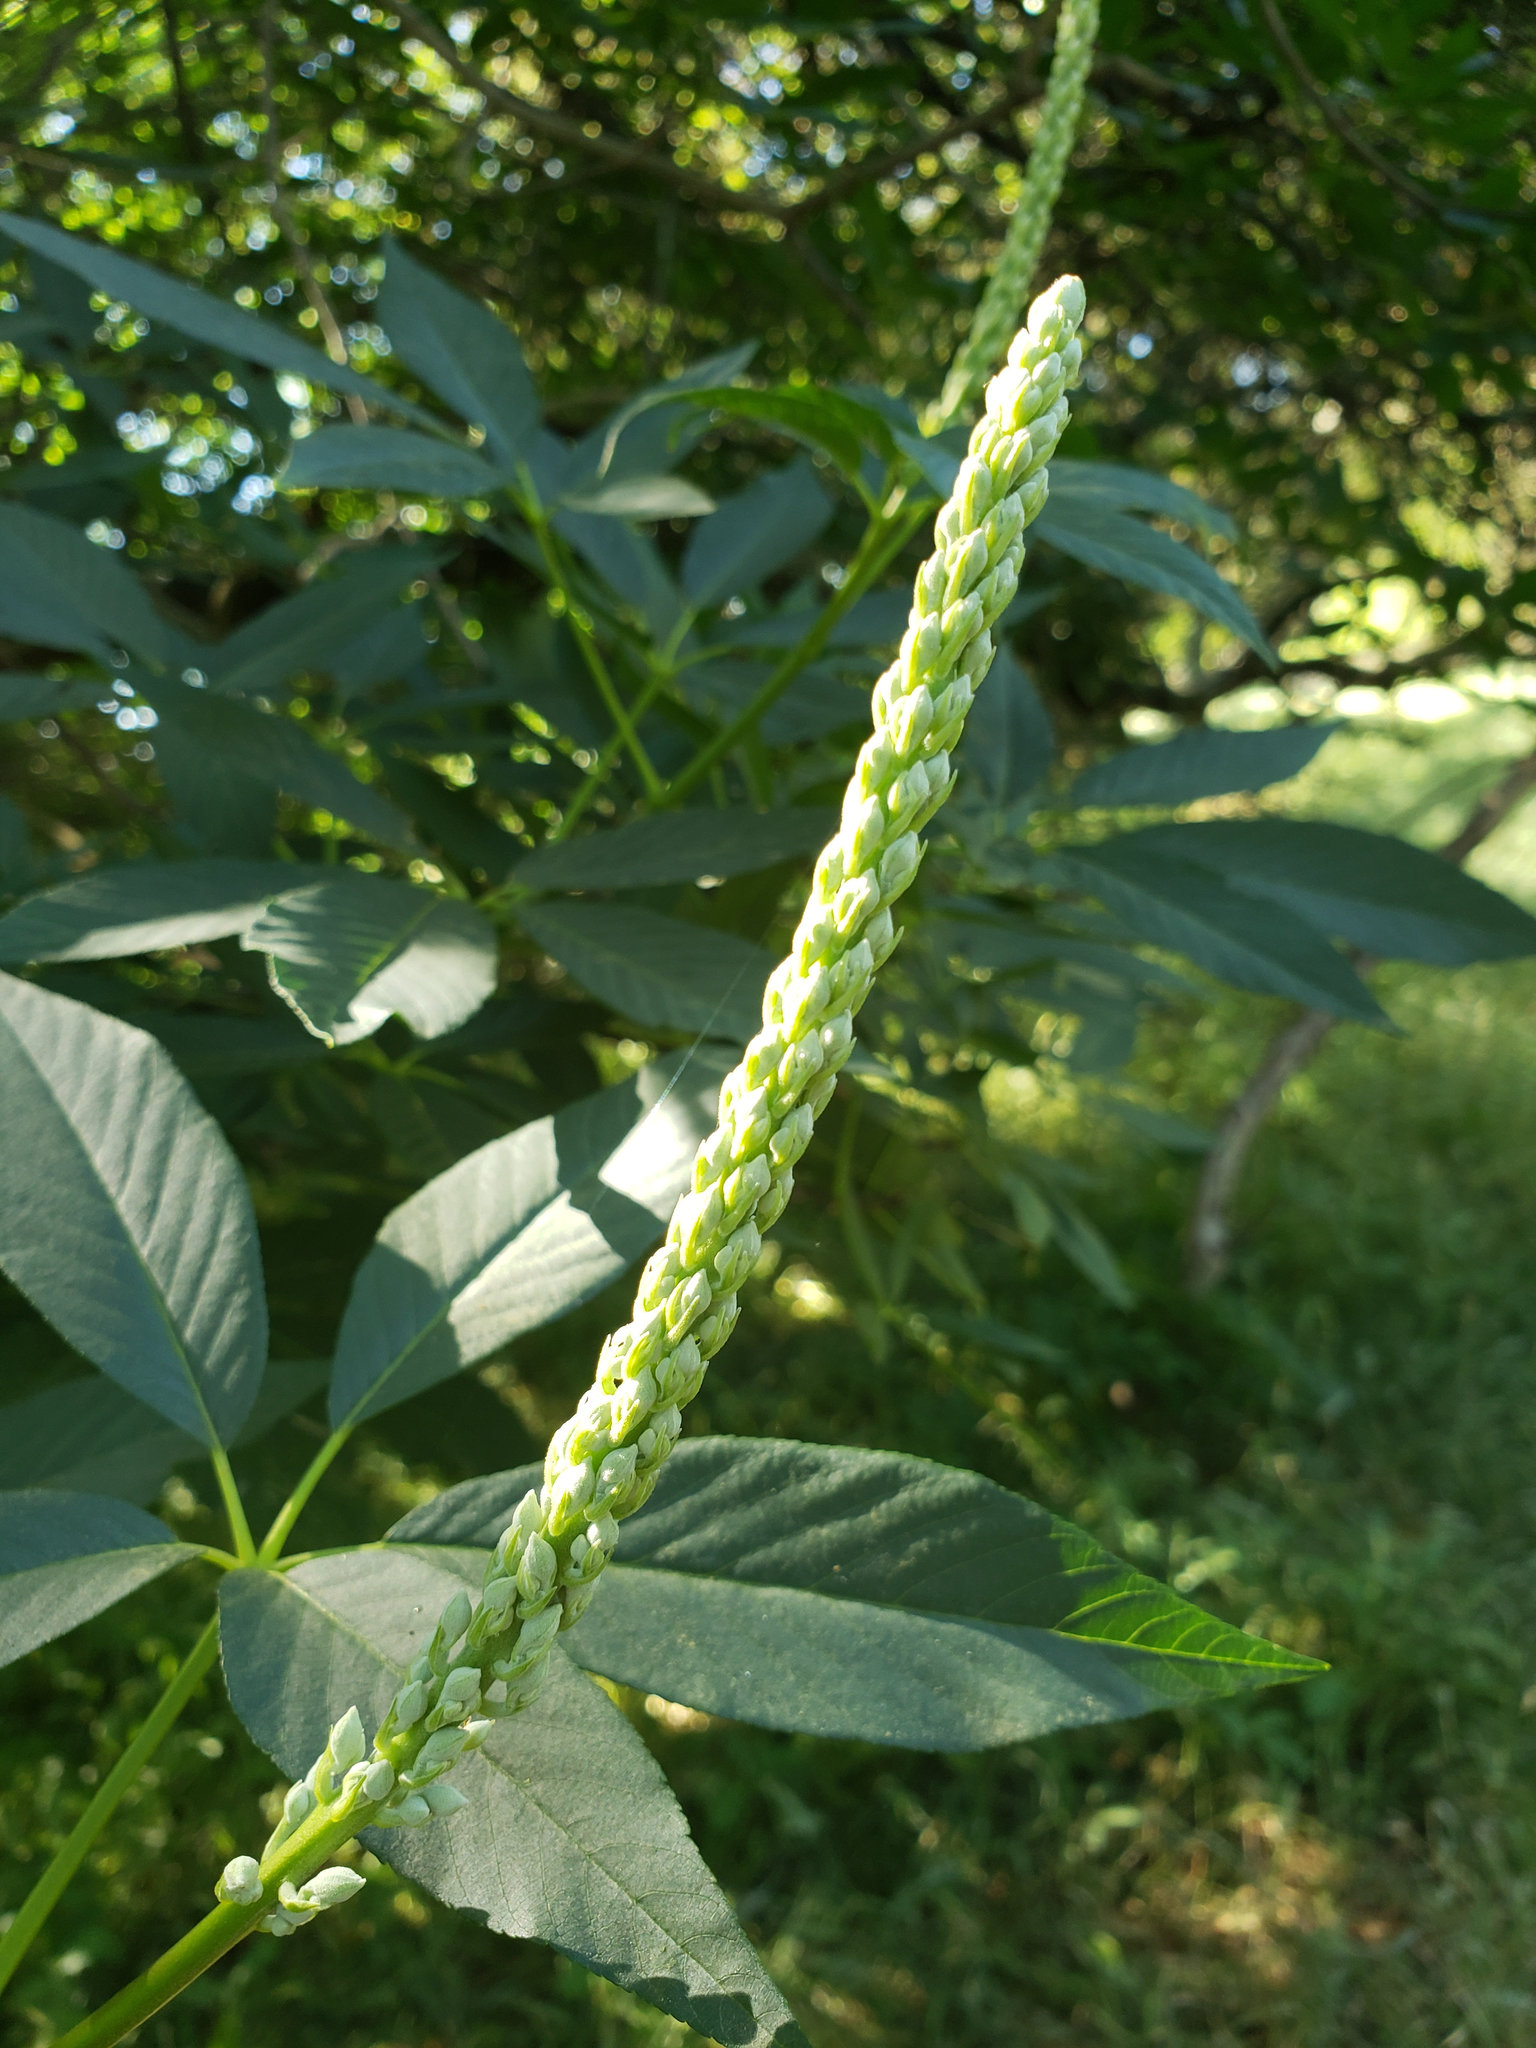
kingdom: Plantae
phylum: Tracheophyta
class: Magnoliopsida
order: Sapindales
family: Sapindaceae
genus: Aesculus
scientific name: Aesculus californica
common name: California buckeye
